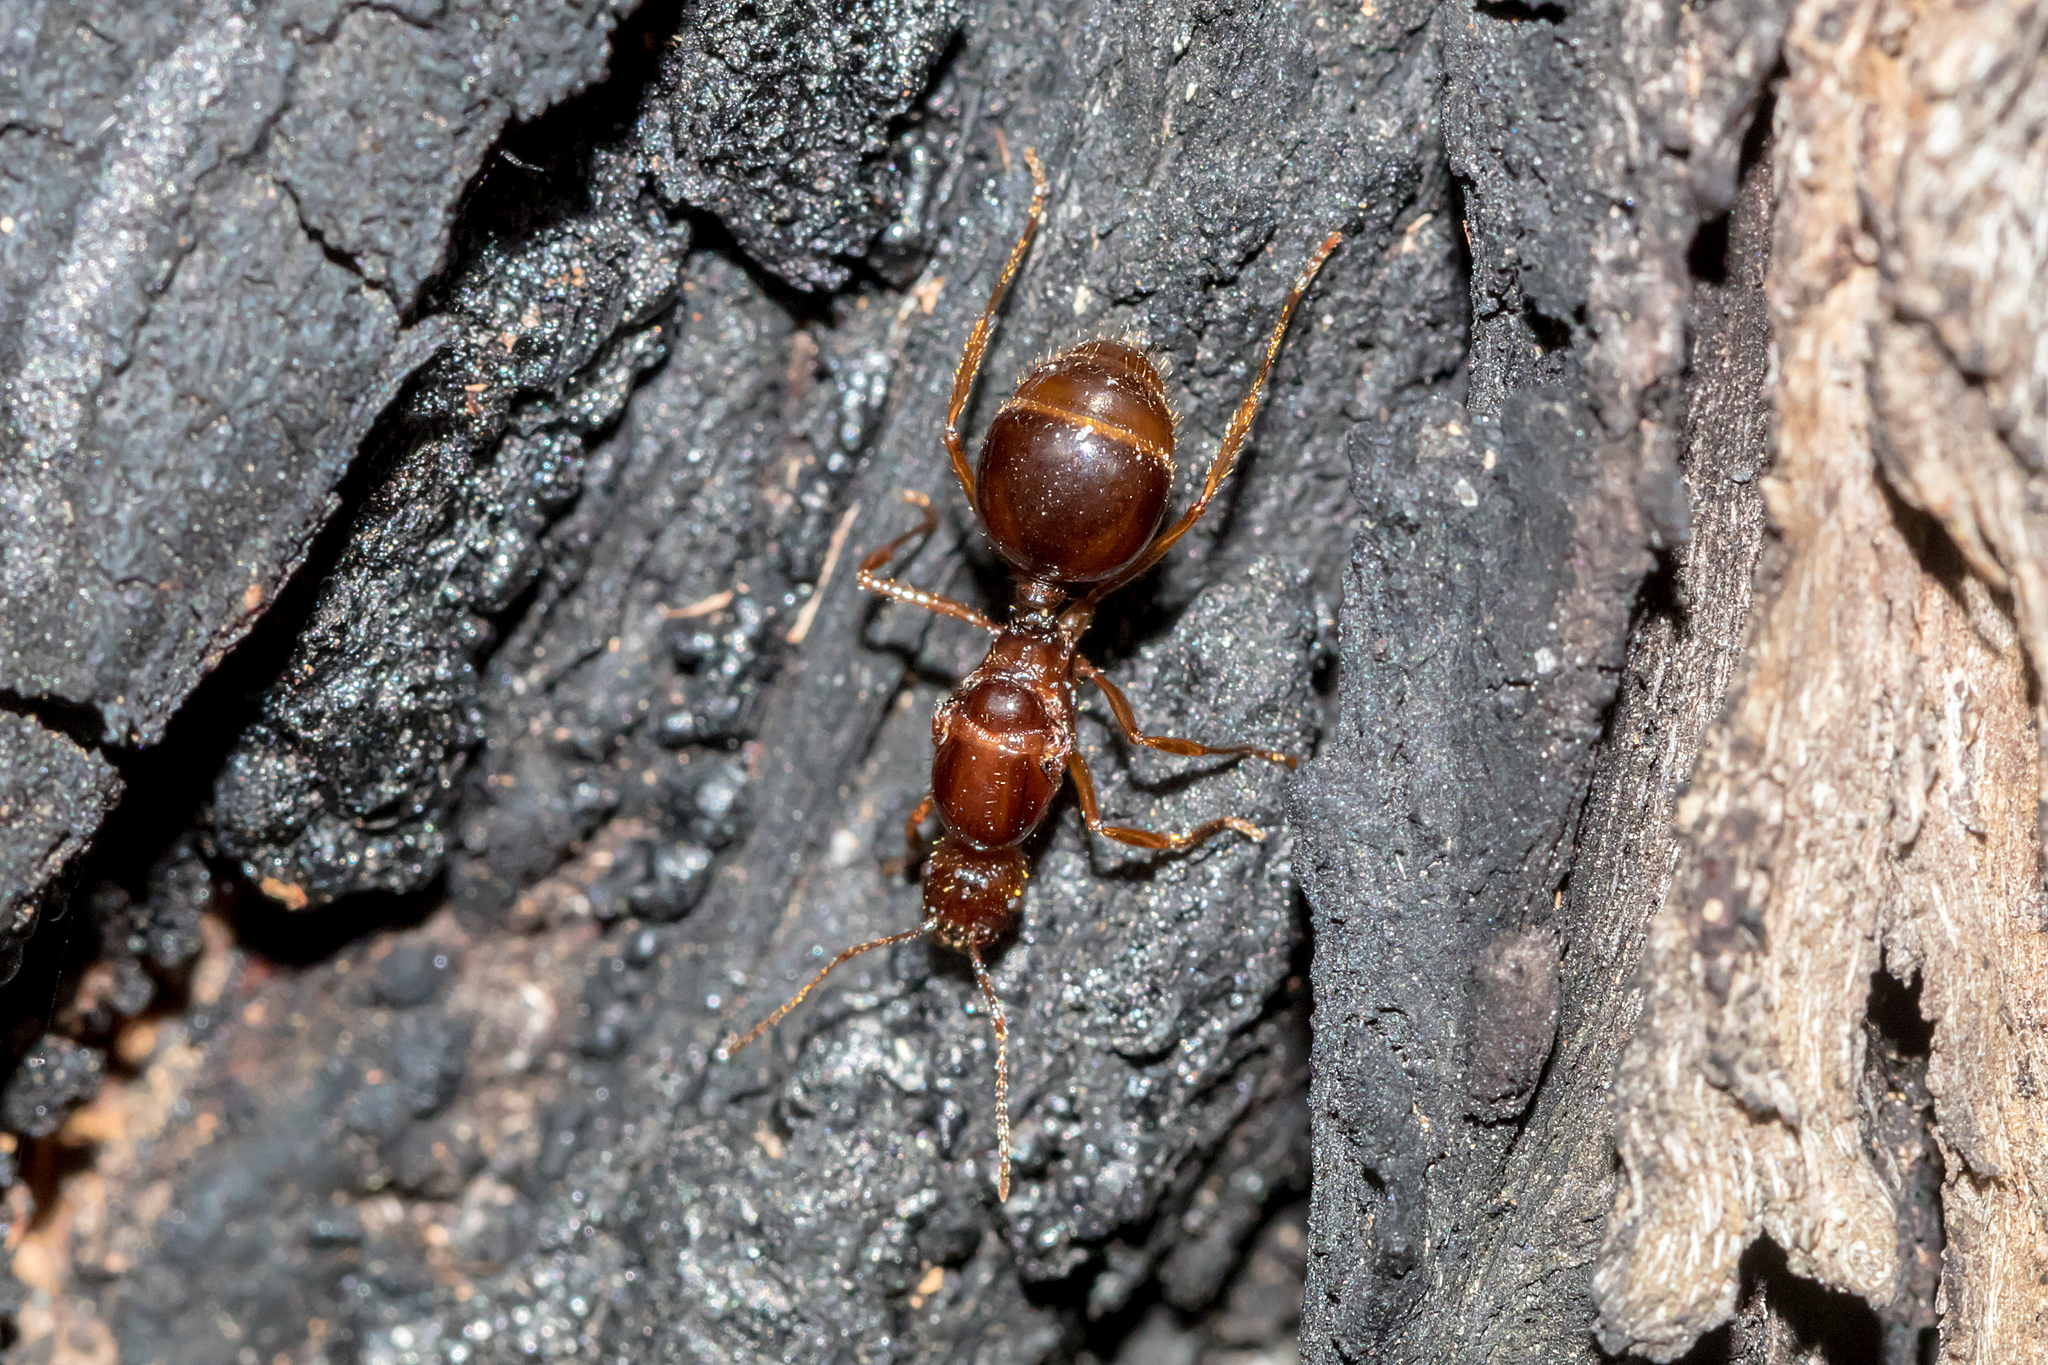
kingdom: Animalia
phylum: Arthropoda
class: Insecta
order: Hymenoptera
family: Formicidae
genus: Aphaenogaster
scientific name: Aphaenogaster longiceps
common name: Funnel ant
